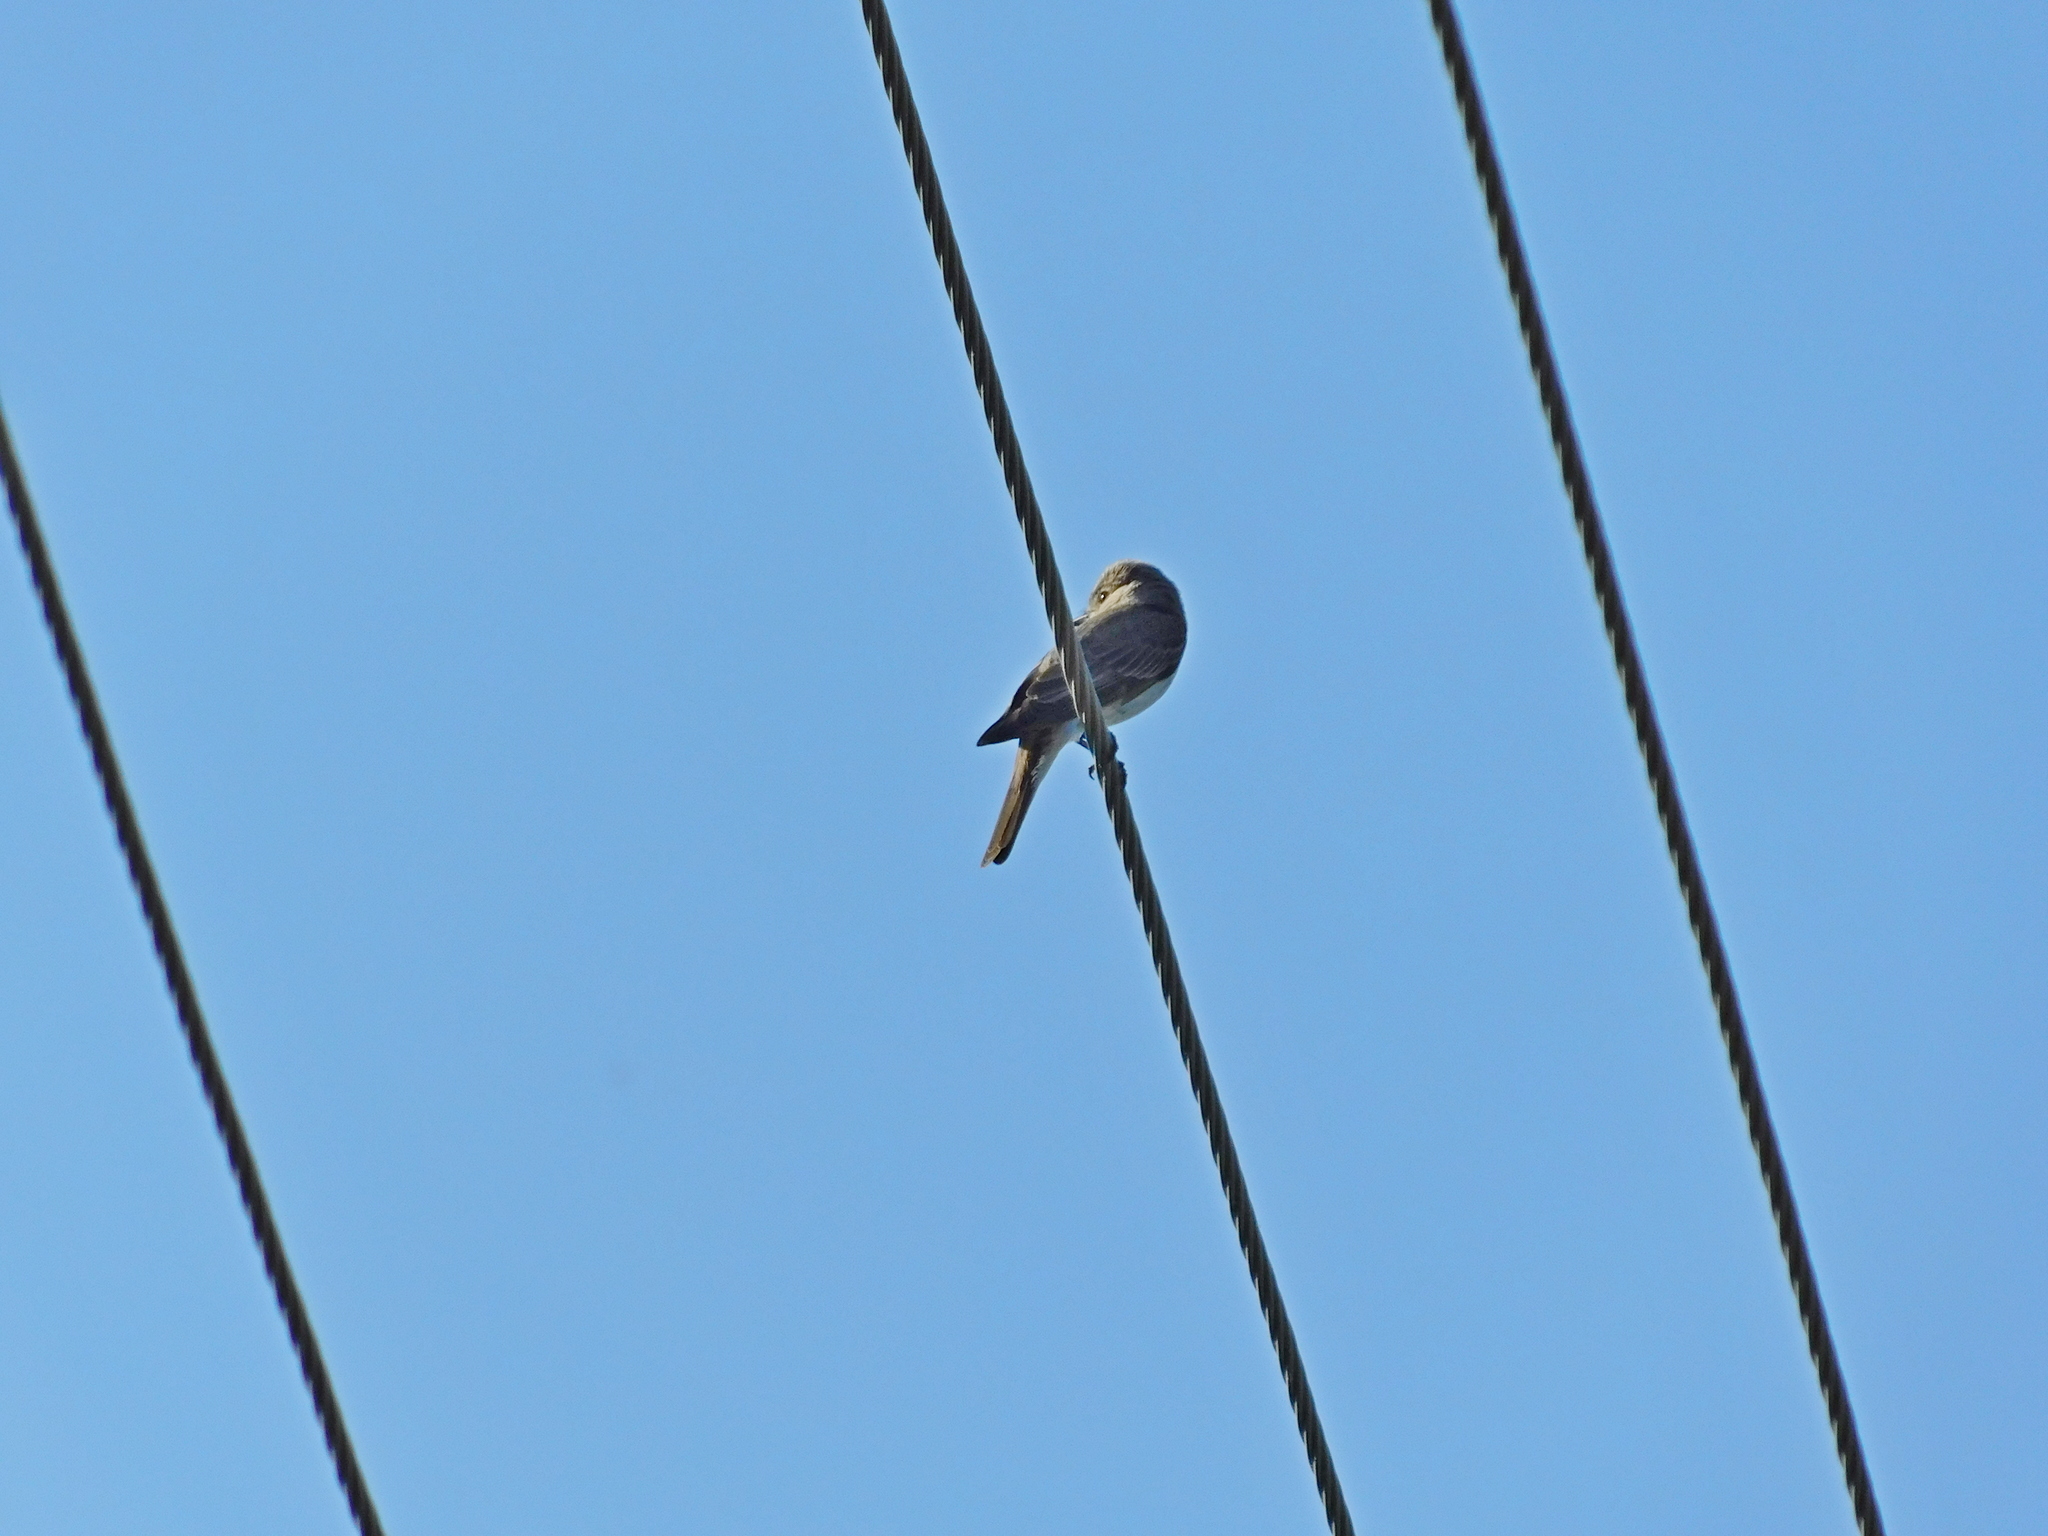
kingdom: Animalia
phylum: Chordata
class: Aves
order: Passeriformes
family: Muscicapidae
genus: Muscicapa
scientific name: Muscicapa striata
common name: Spotted flycatcher
